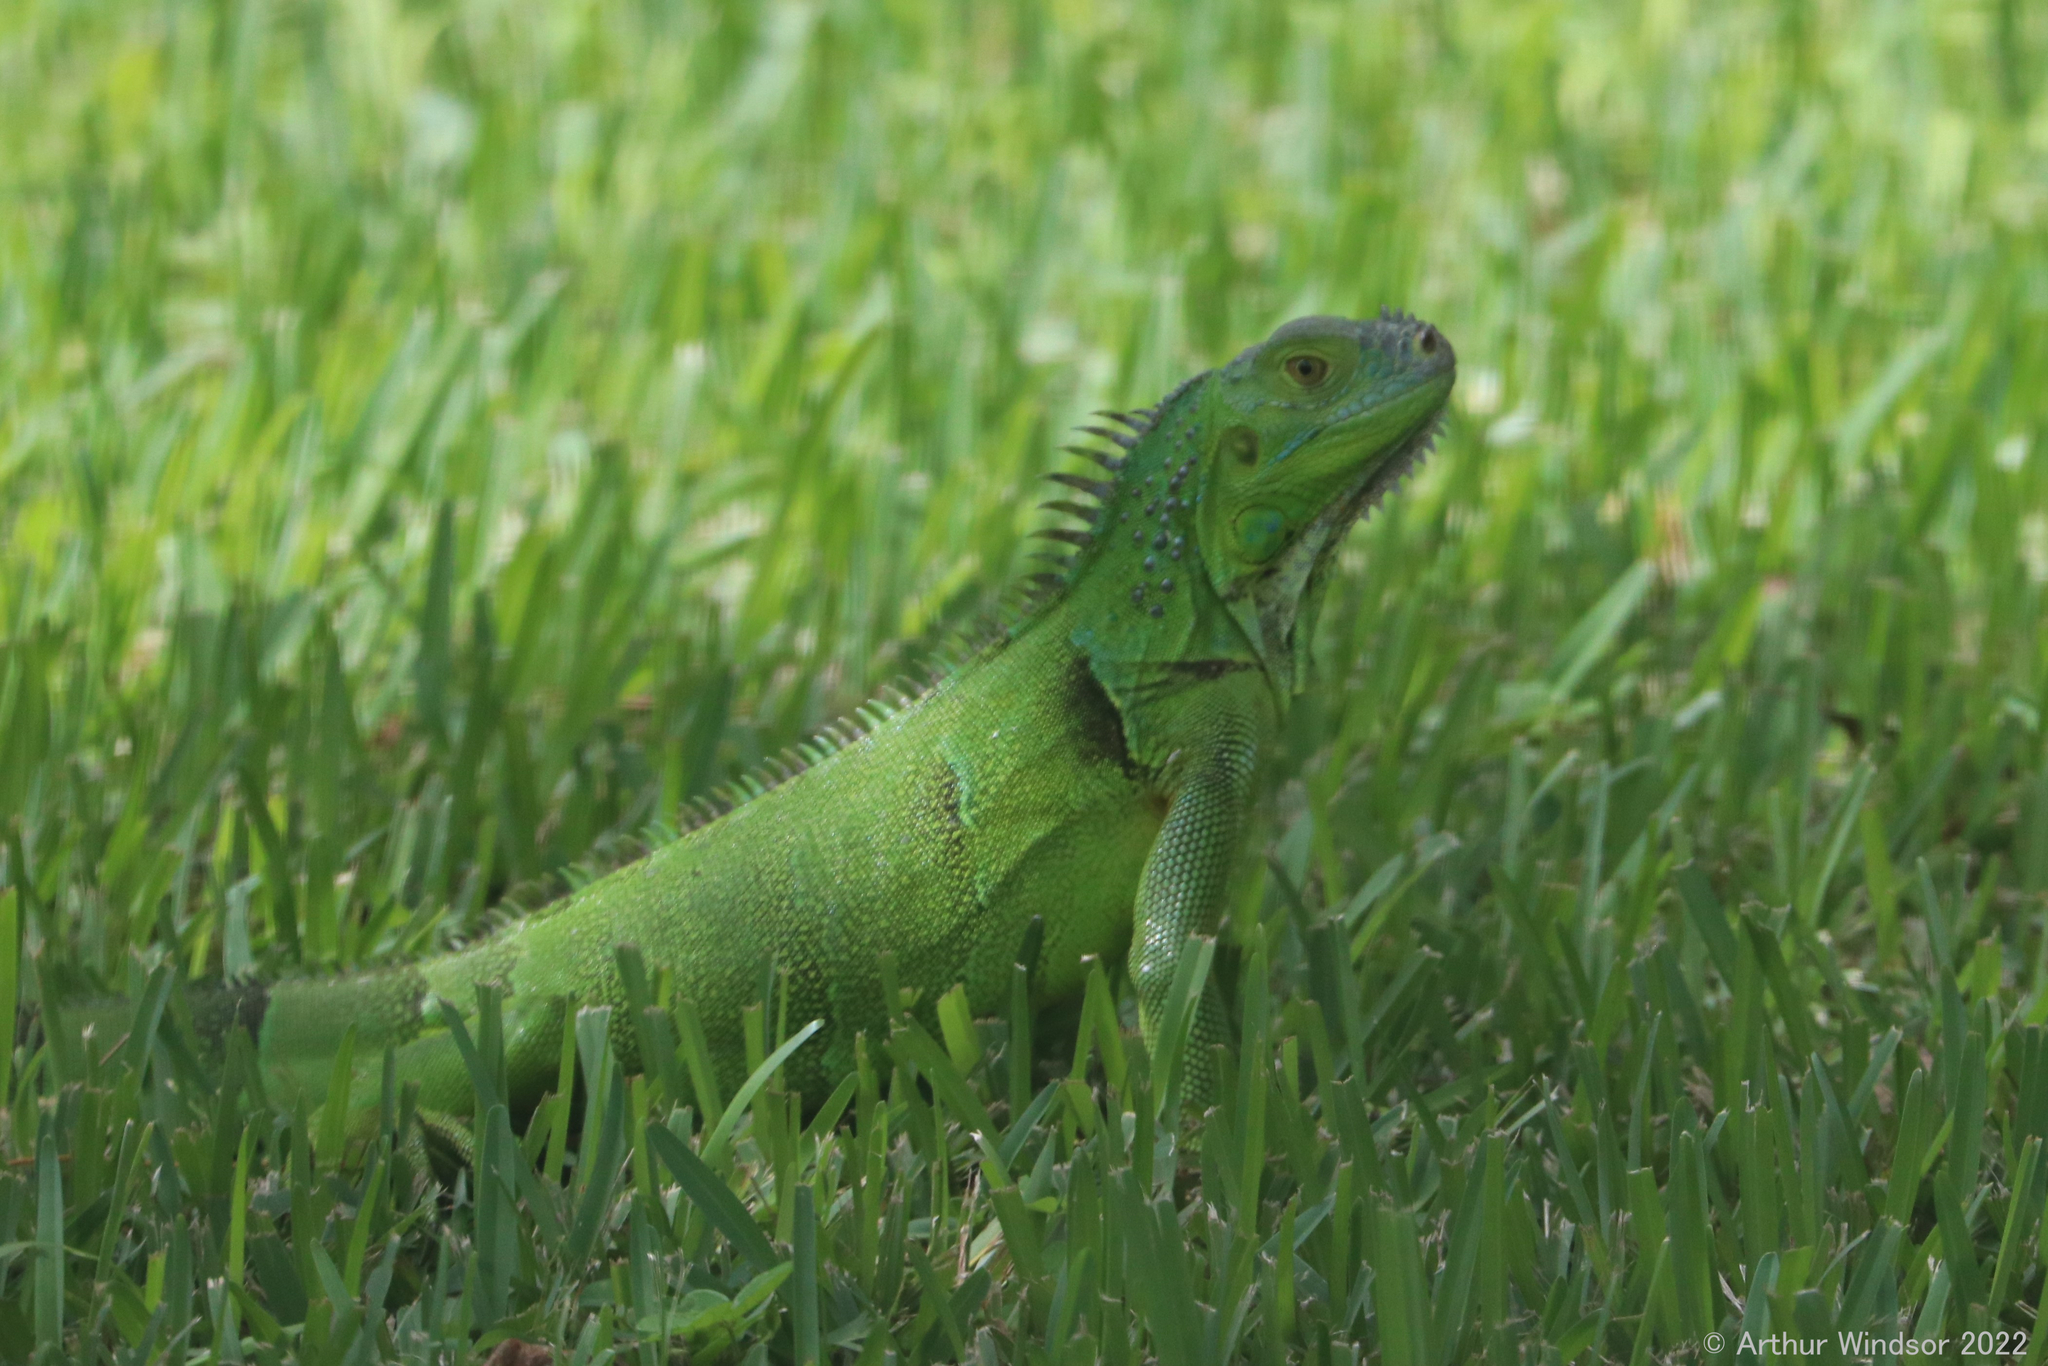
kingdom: Animalia
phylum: Chordata
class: Squamata
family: Iguanidae
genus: Iguana
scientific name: Iguana iguana
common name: Green iguana
